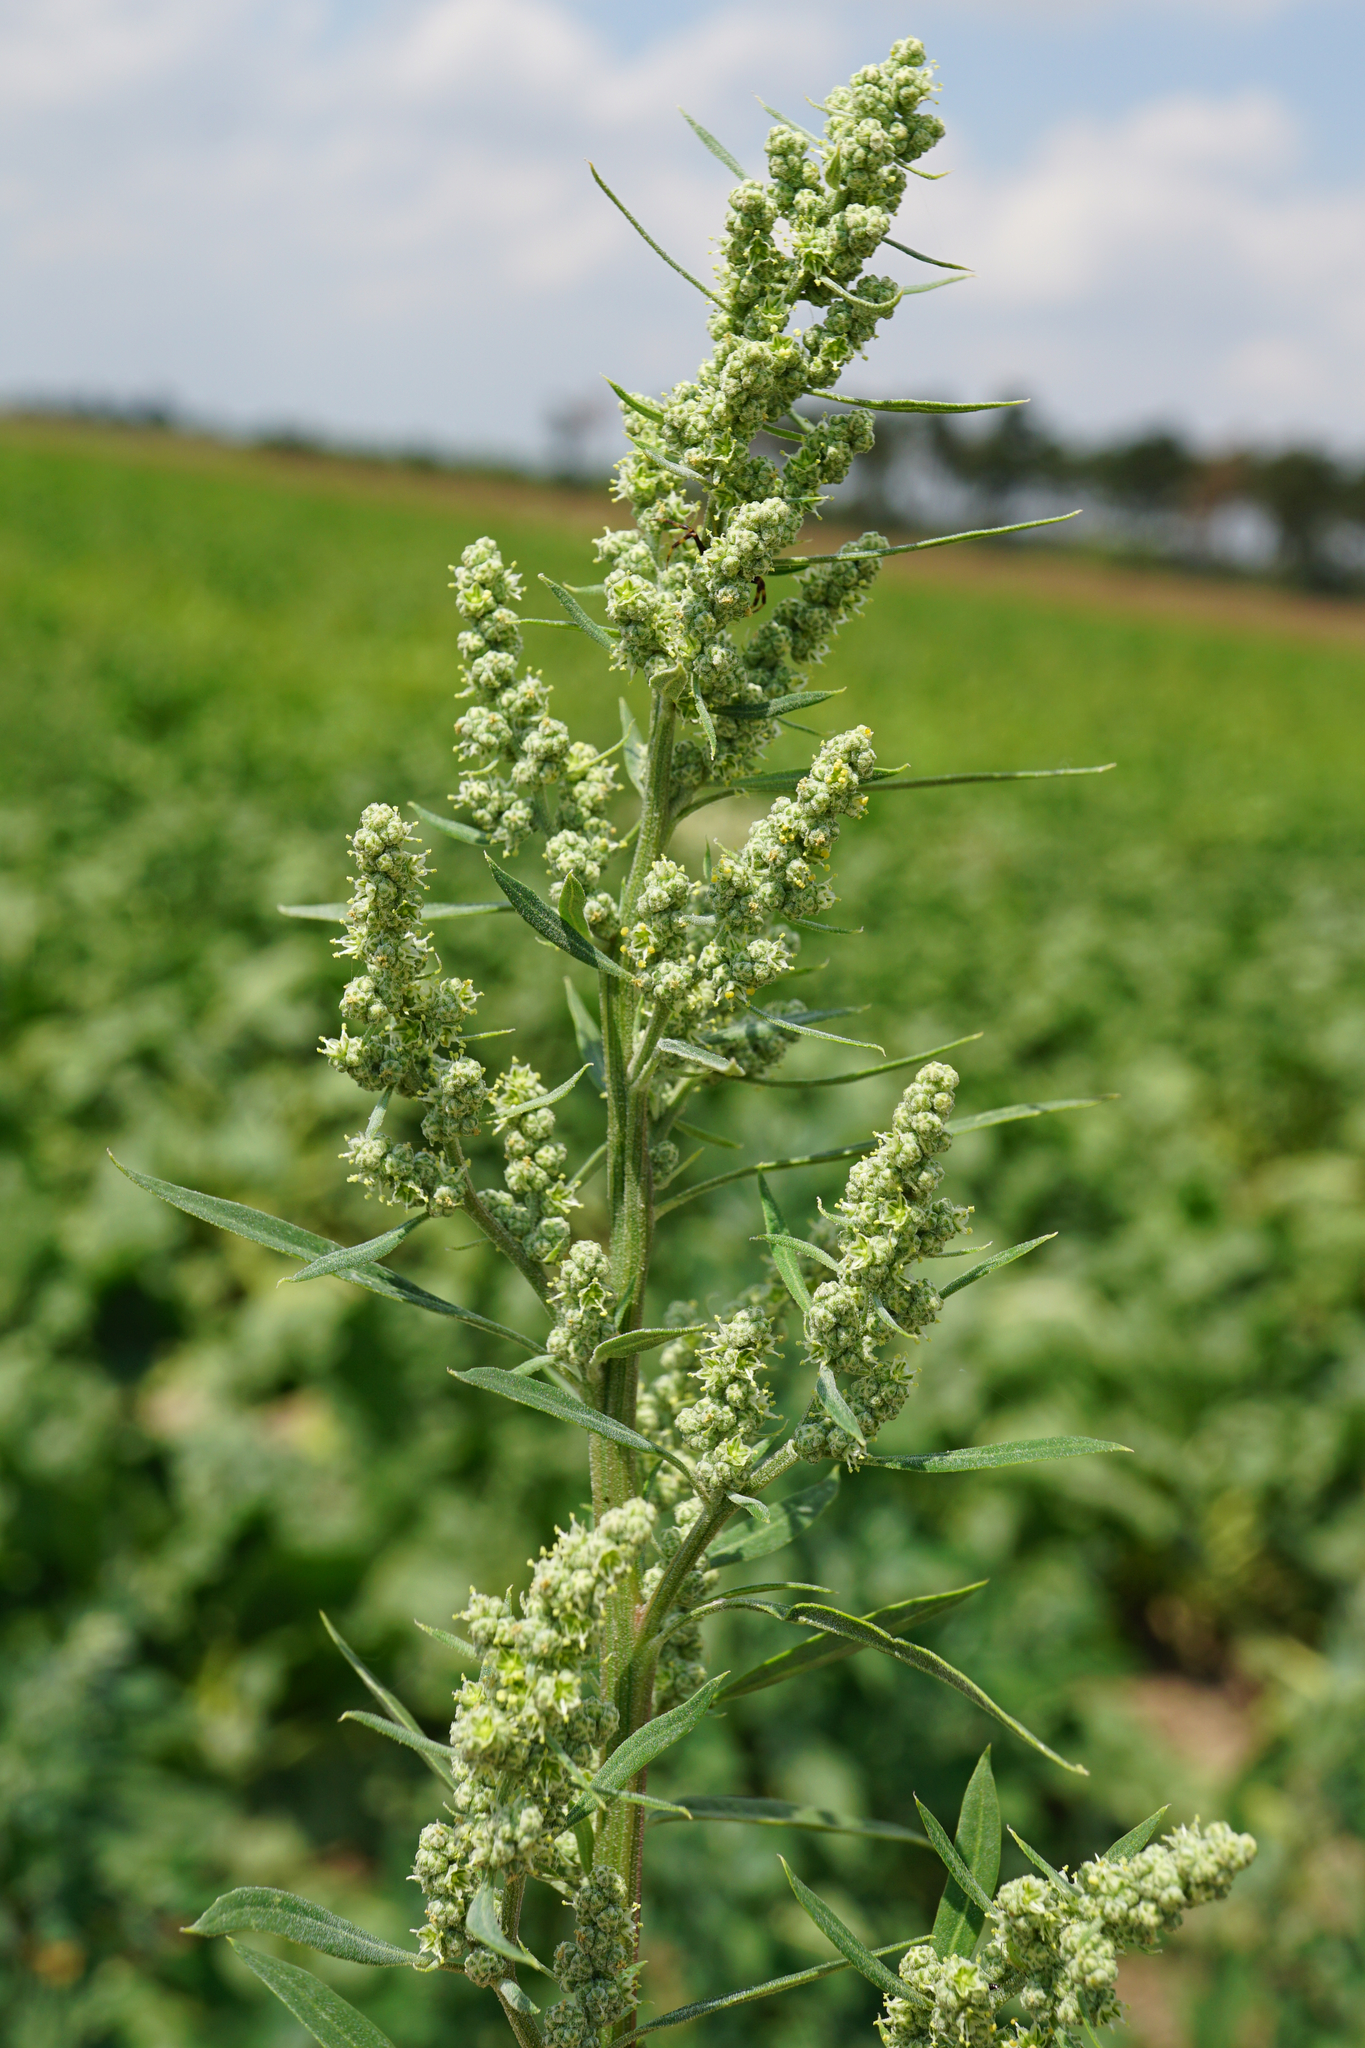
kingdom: Plantae
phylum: Tracheophyta
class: Magnoliopsida
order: Caryophyllales
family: Amaranthaceae
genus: Chenopodium
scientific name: Chenopodium album
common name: Fat-hen
